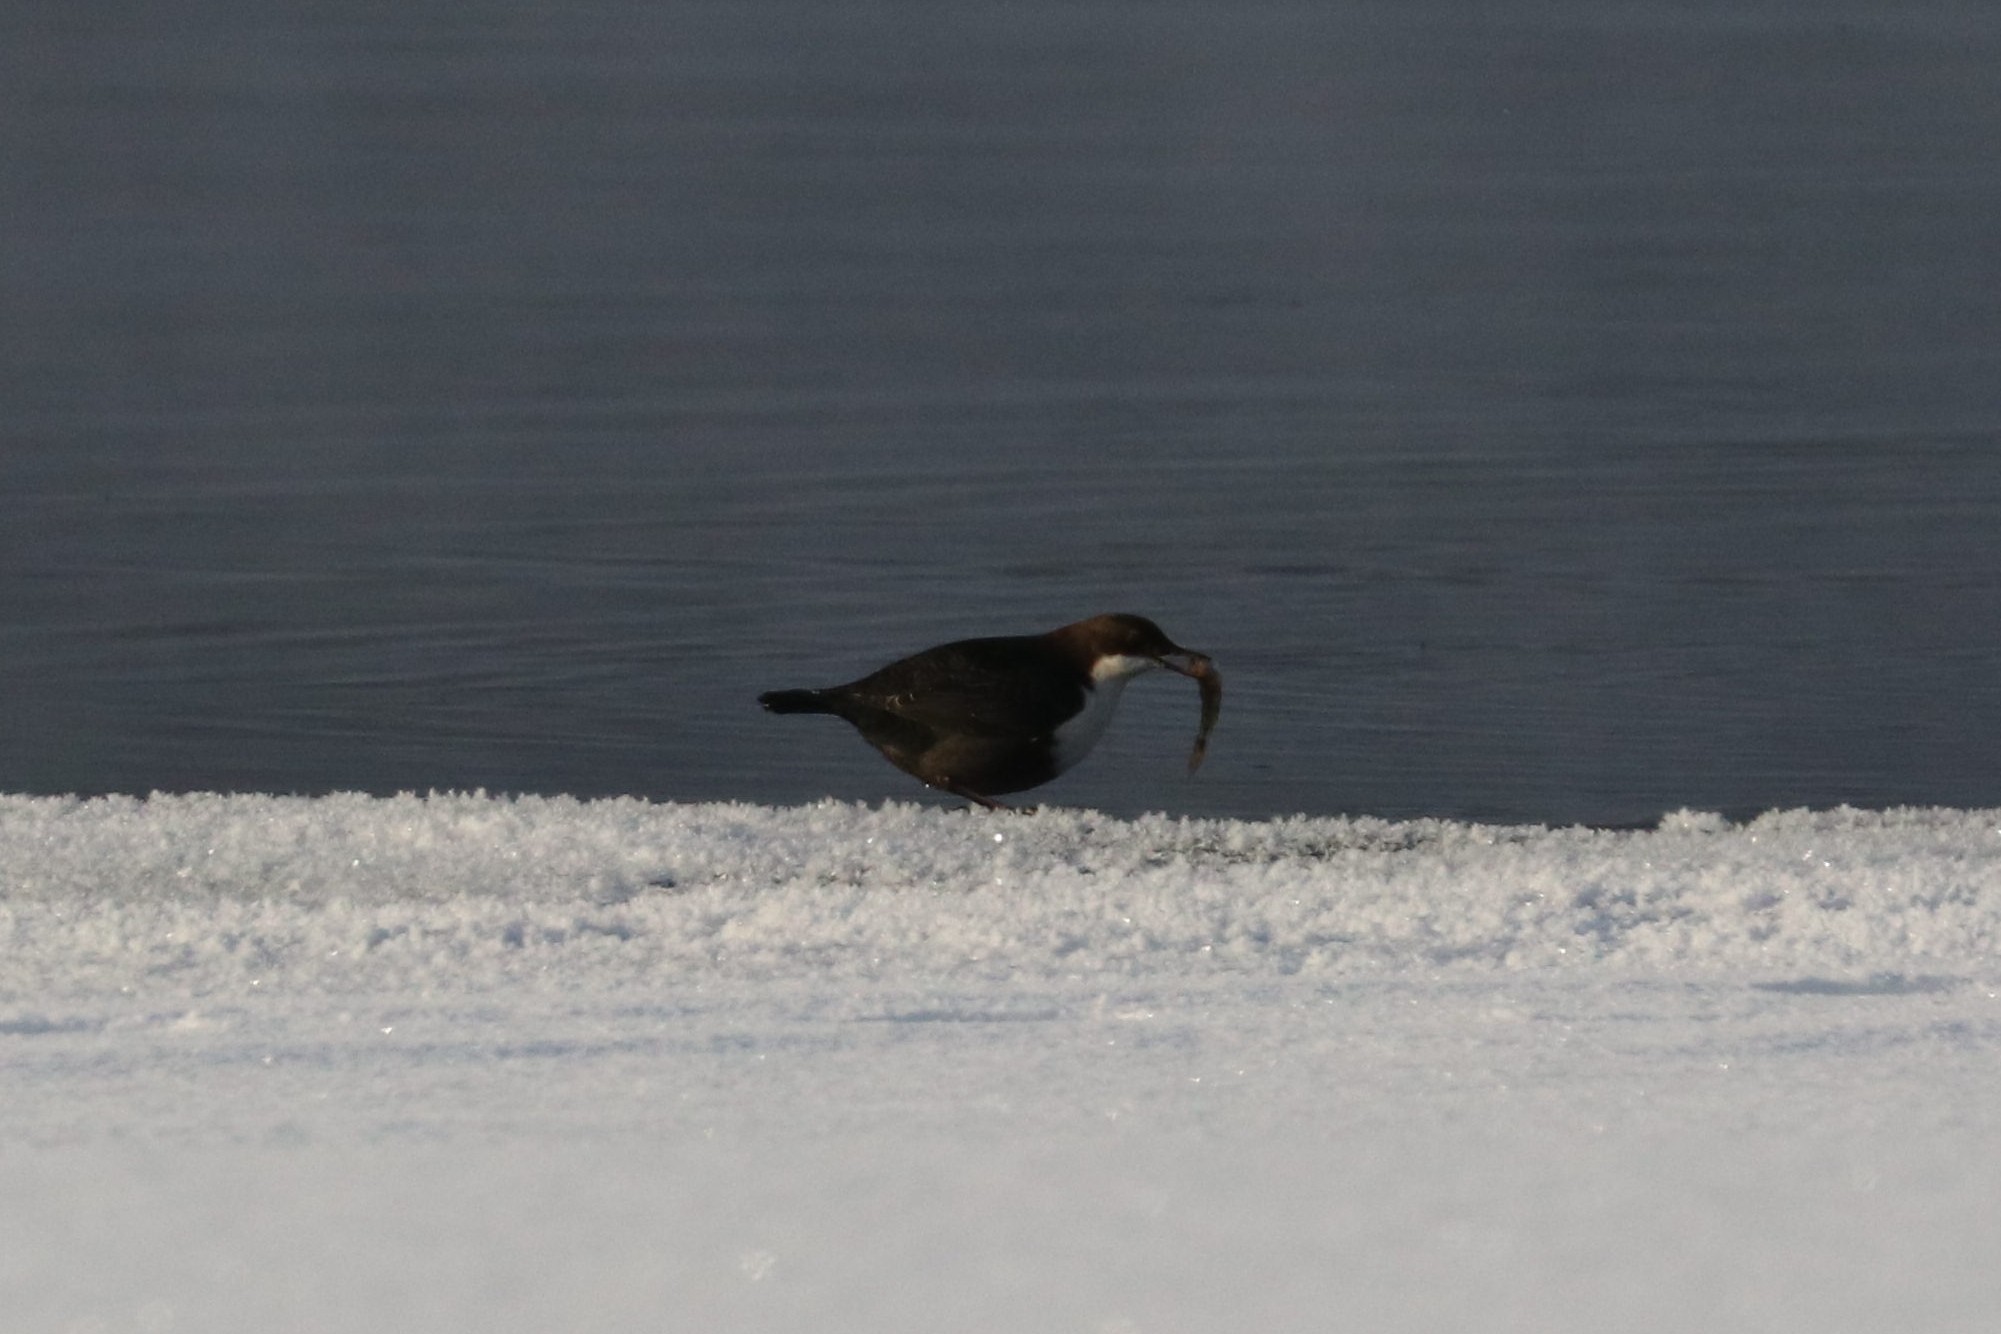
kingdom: Animalia
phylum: Chordata
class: Aves
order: Passeriformes
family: Cinclidae
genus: Cinclus
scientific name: Cinclus cinclus
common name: White-throated dipper
